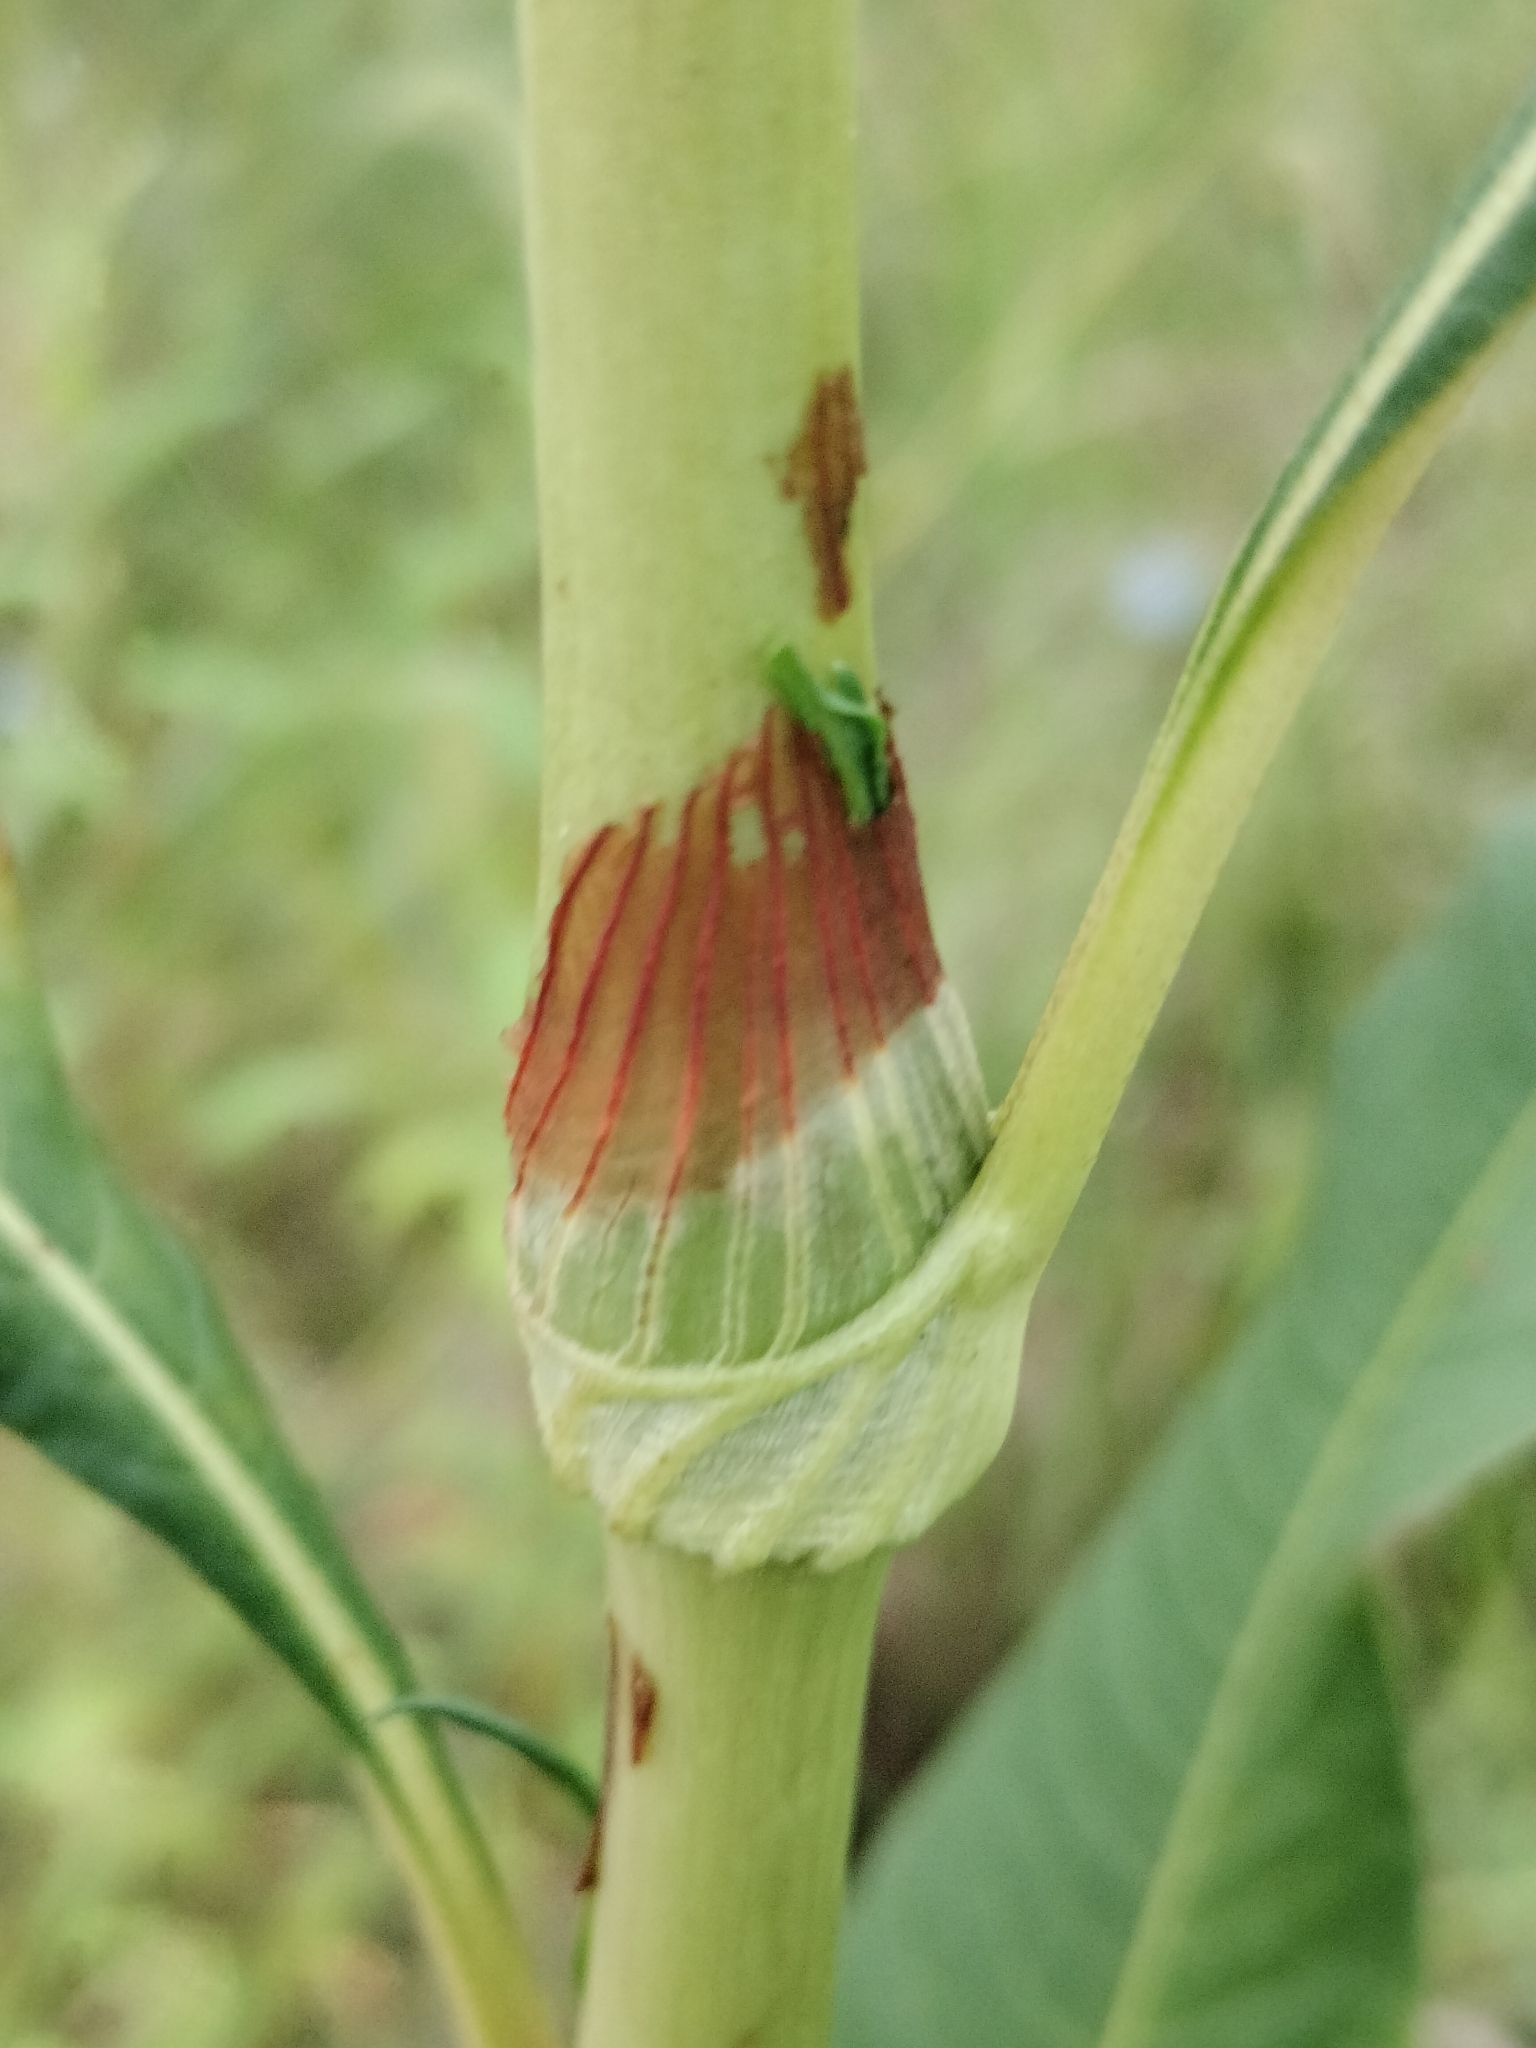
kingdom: Plantae
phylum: Tracheophyta
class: Magnoliopsida
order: Caryophyllales
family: Polygonaceae
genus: Persicaria
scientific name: Persicaria lapathifolia
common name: Curlytop knotweed
